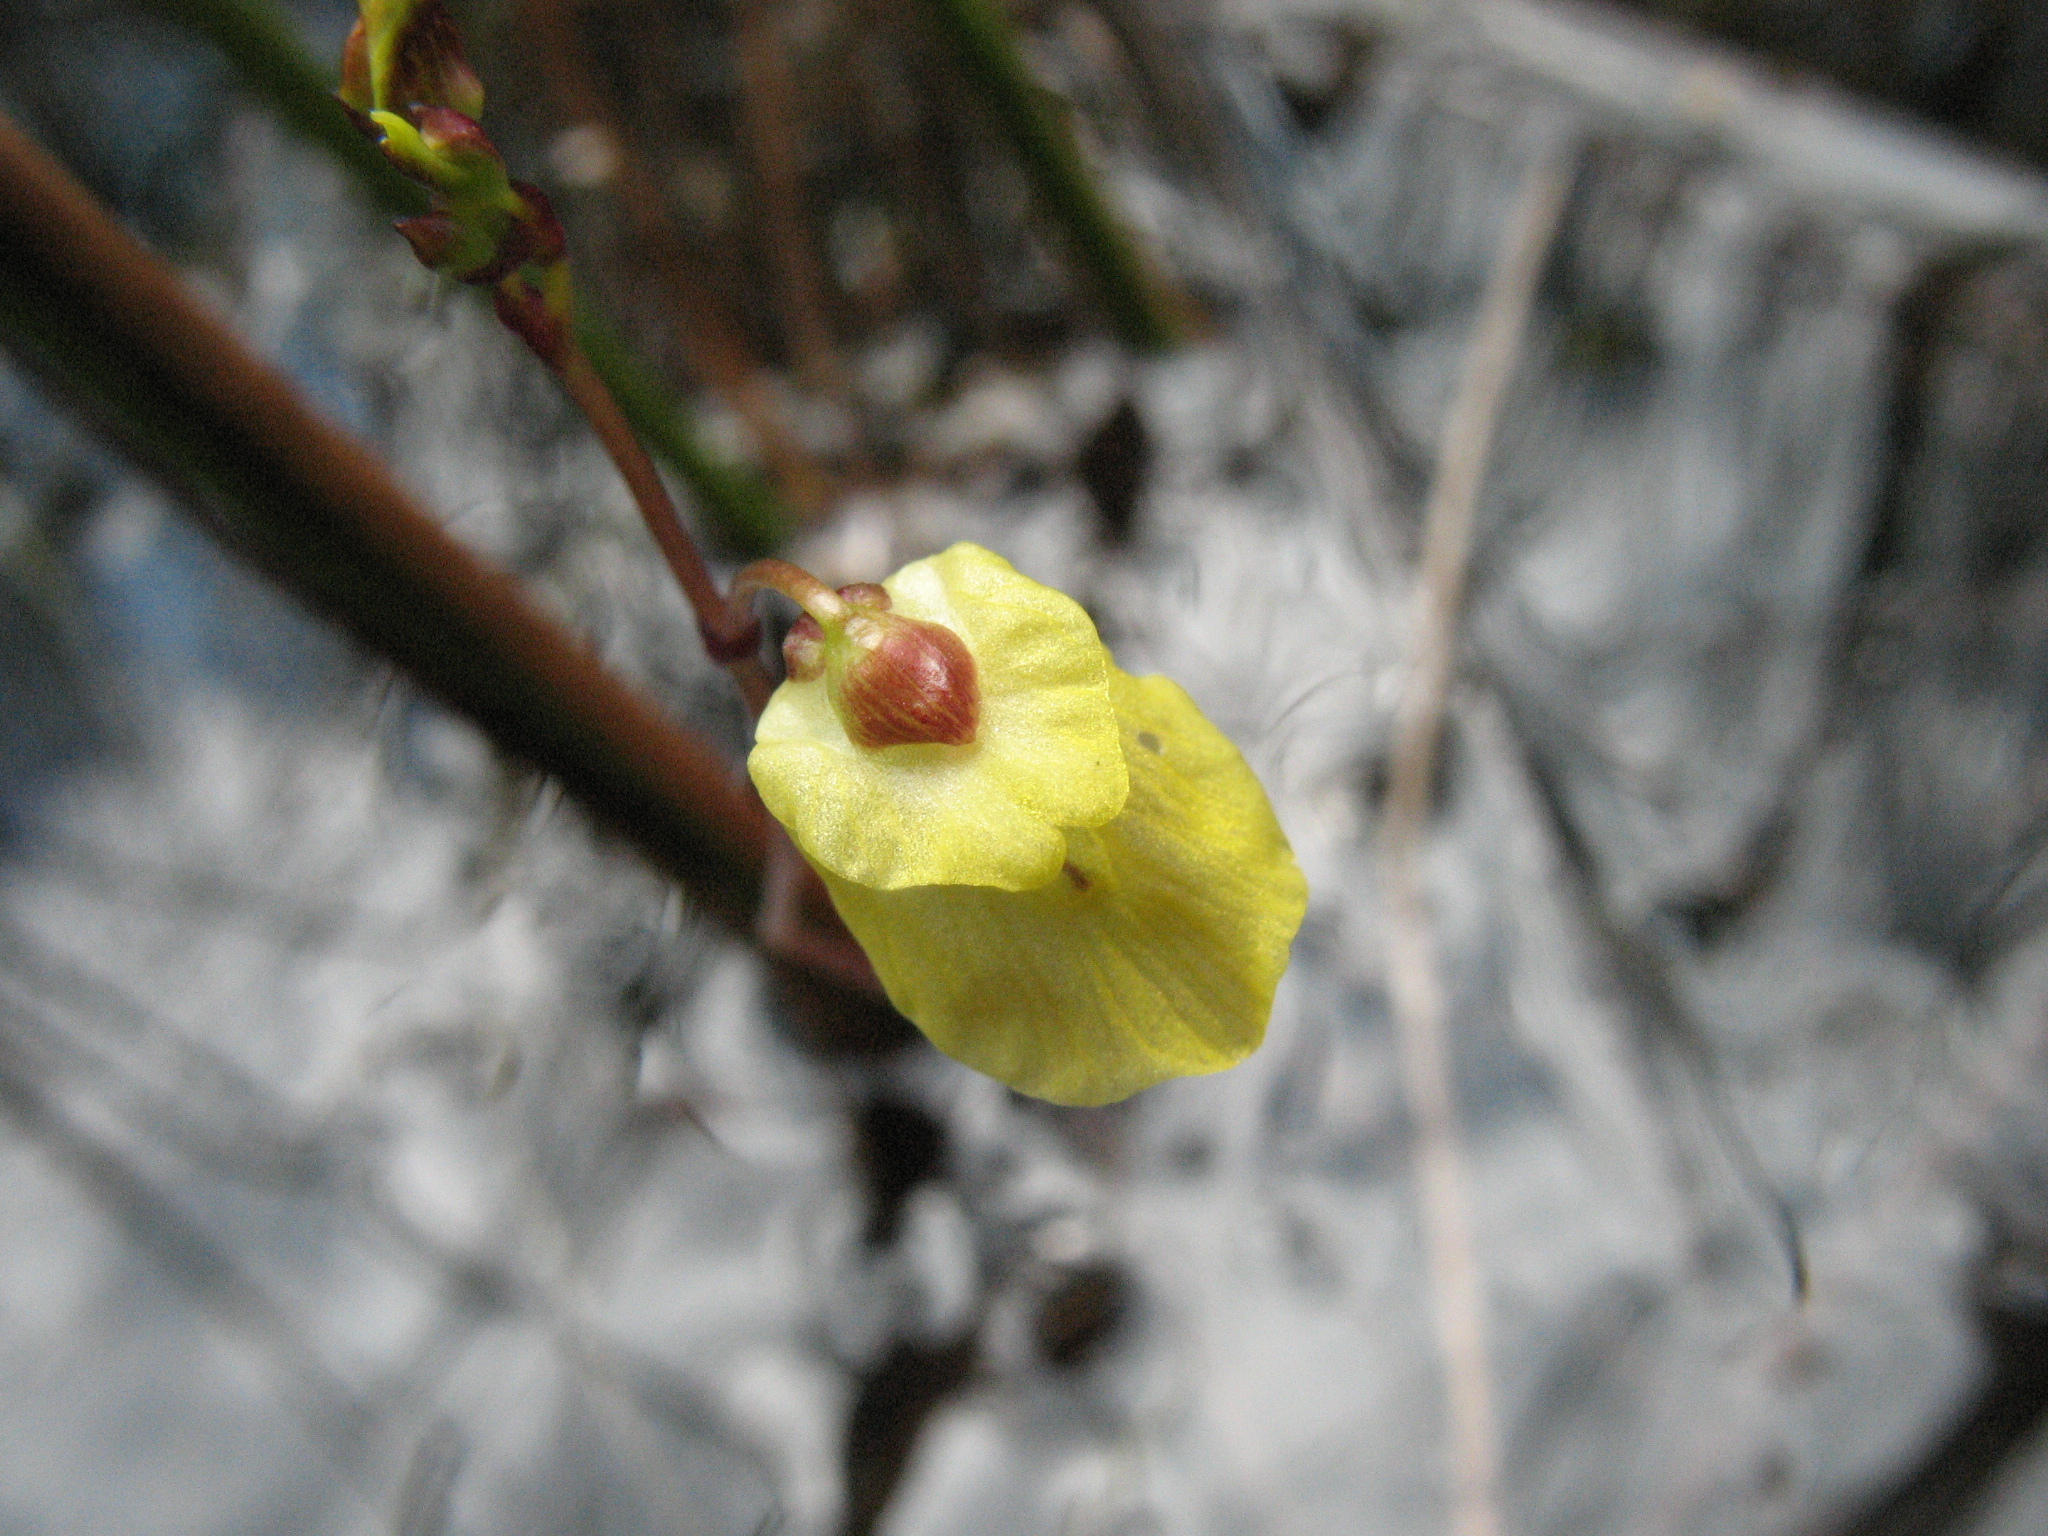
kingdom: Plantae
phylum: Tracheophyta
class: Magnoliopsida
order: Lamiales
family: Lentibulariaceae
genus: Utricularia
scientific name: Utricularia minor
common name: Lesser bladderwort
